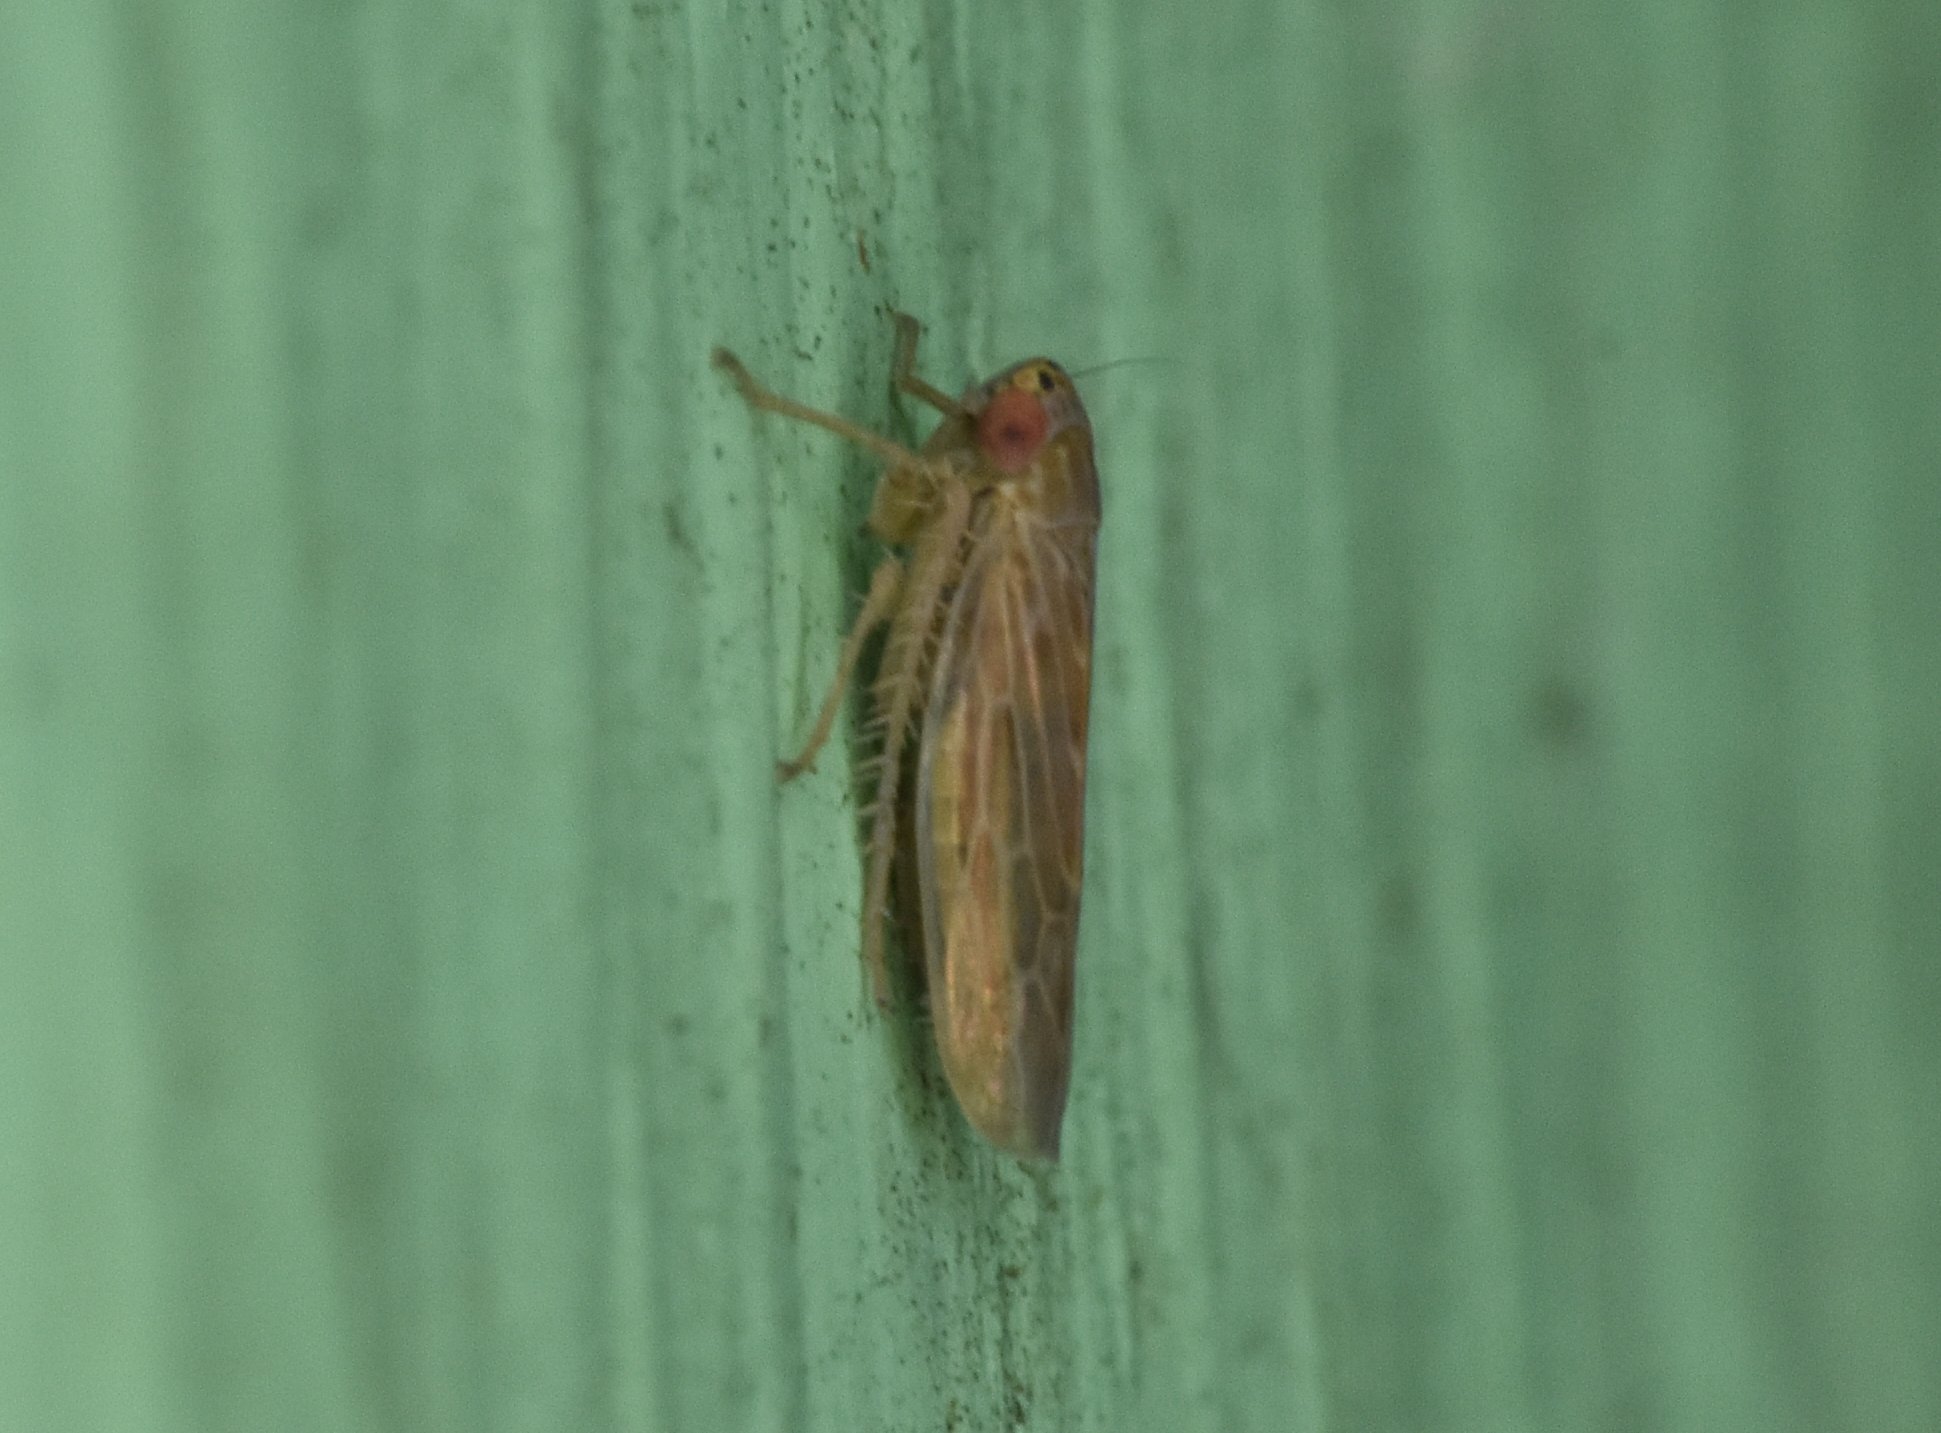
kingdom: Animalia
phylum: Arthropoda
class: Insecta
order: Hemiptera
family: Cicadellidae
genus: Graminella
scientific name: Graminella sonora
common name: Lesser lawn leafhopper
